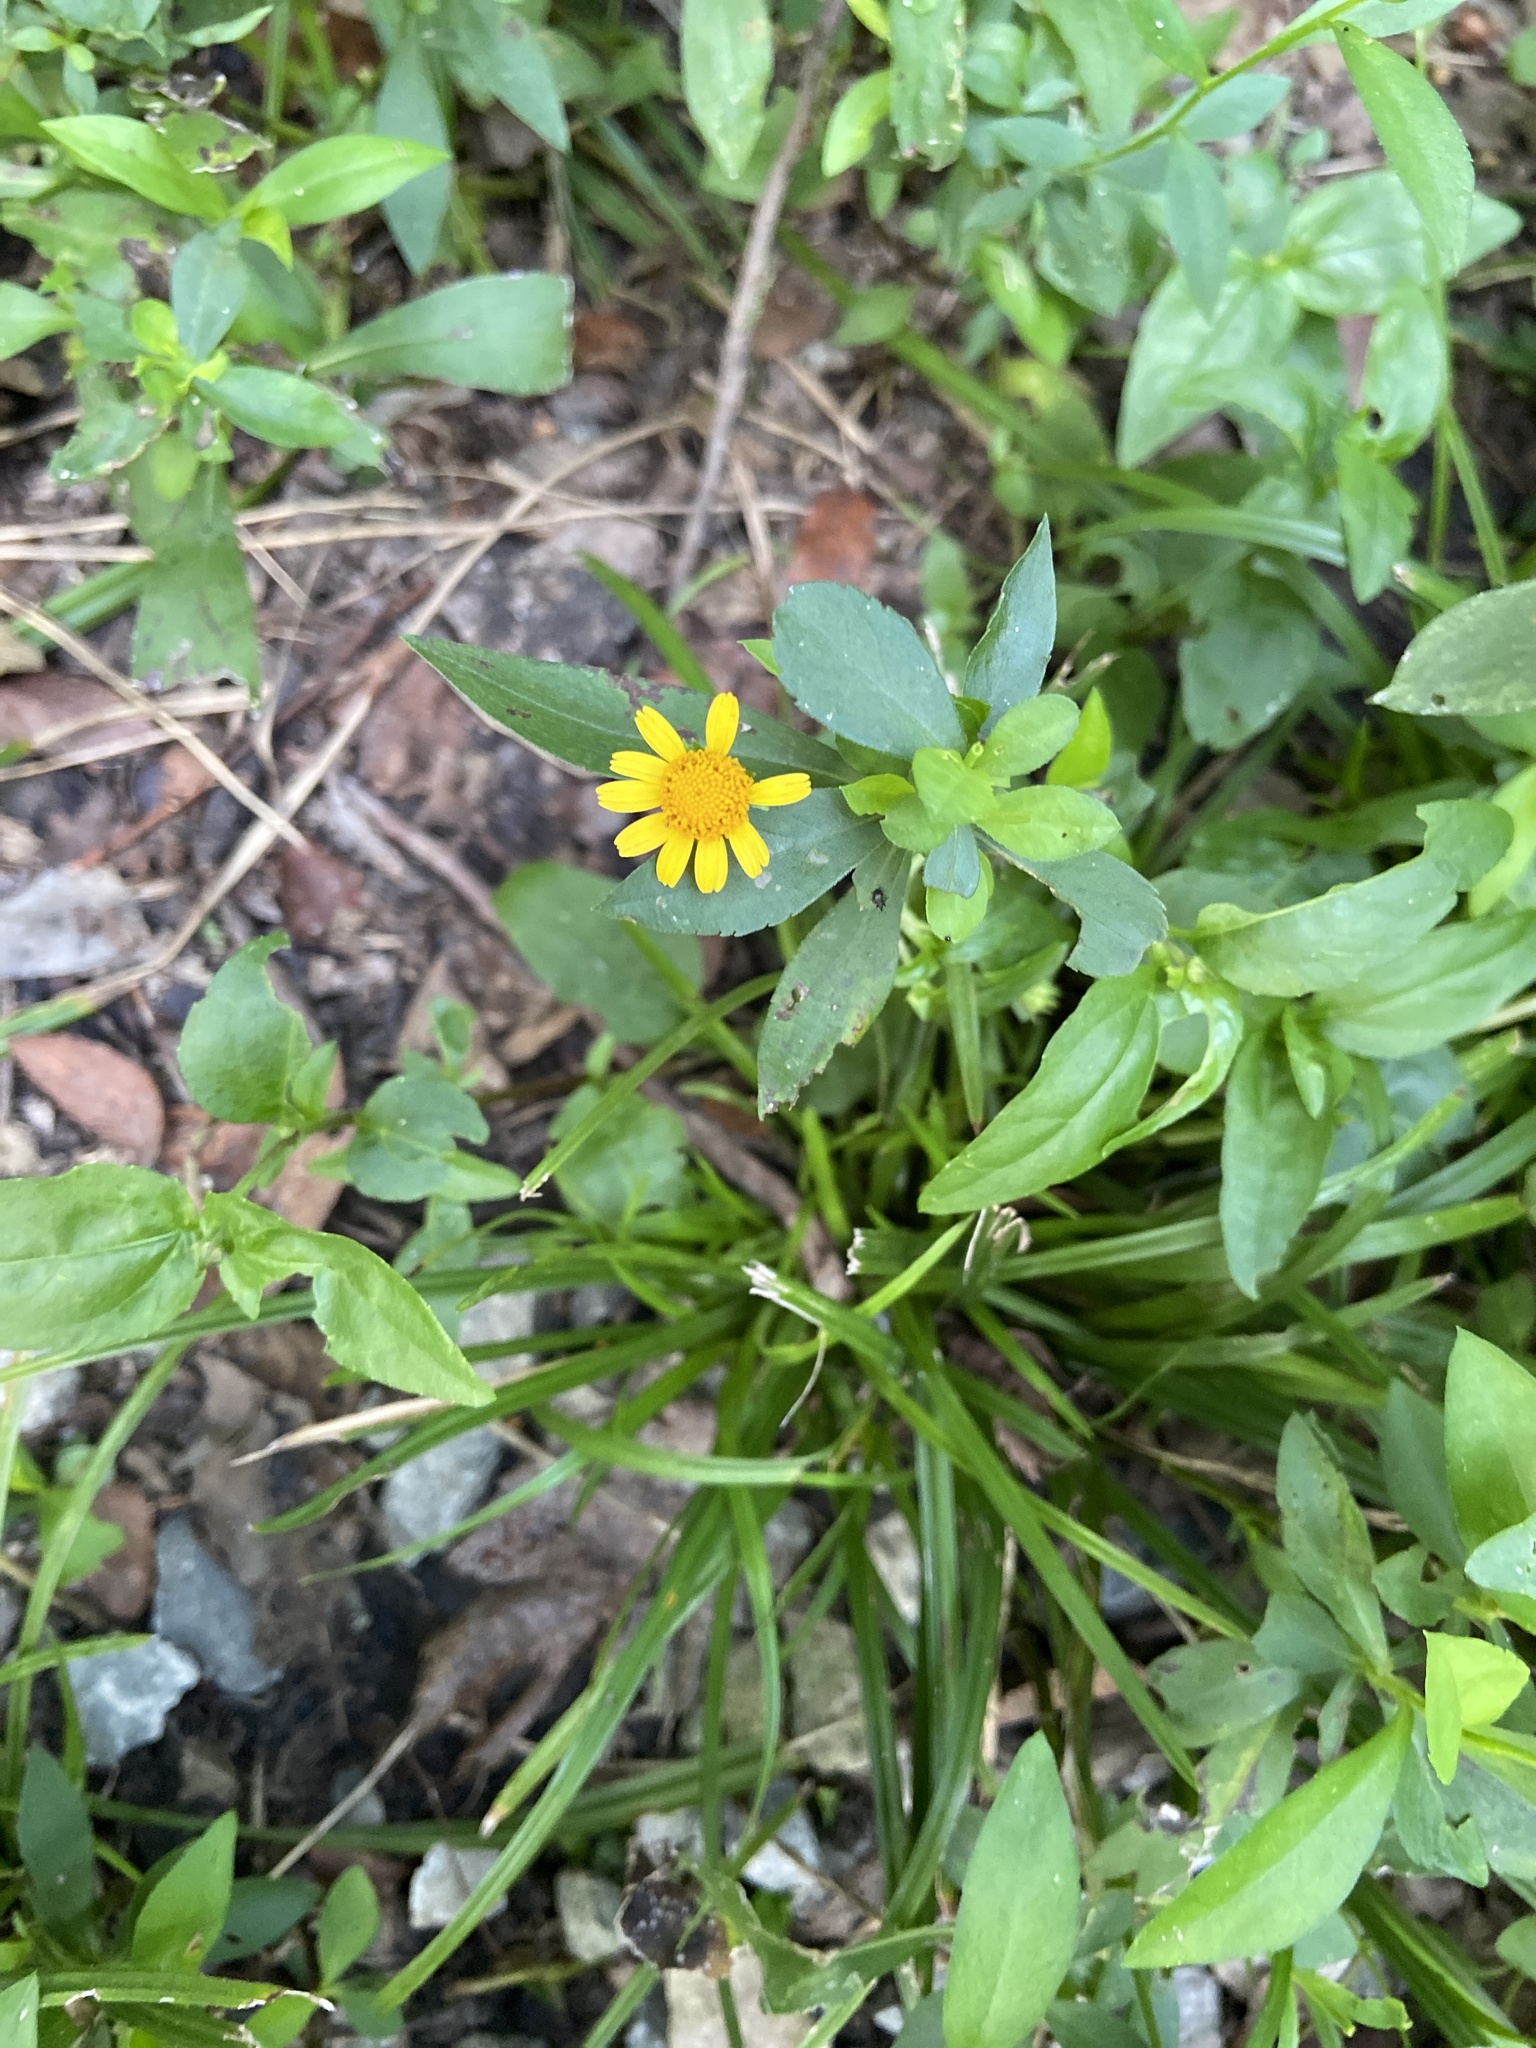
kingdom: Plantae
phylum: Tracheophyta
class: Magnoliopsida
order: Asterales
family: Asteraceae
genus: Acmella
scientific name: Acmella repens
